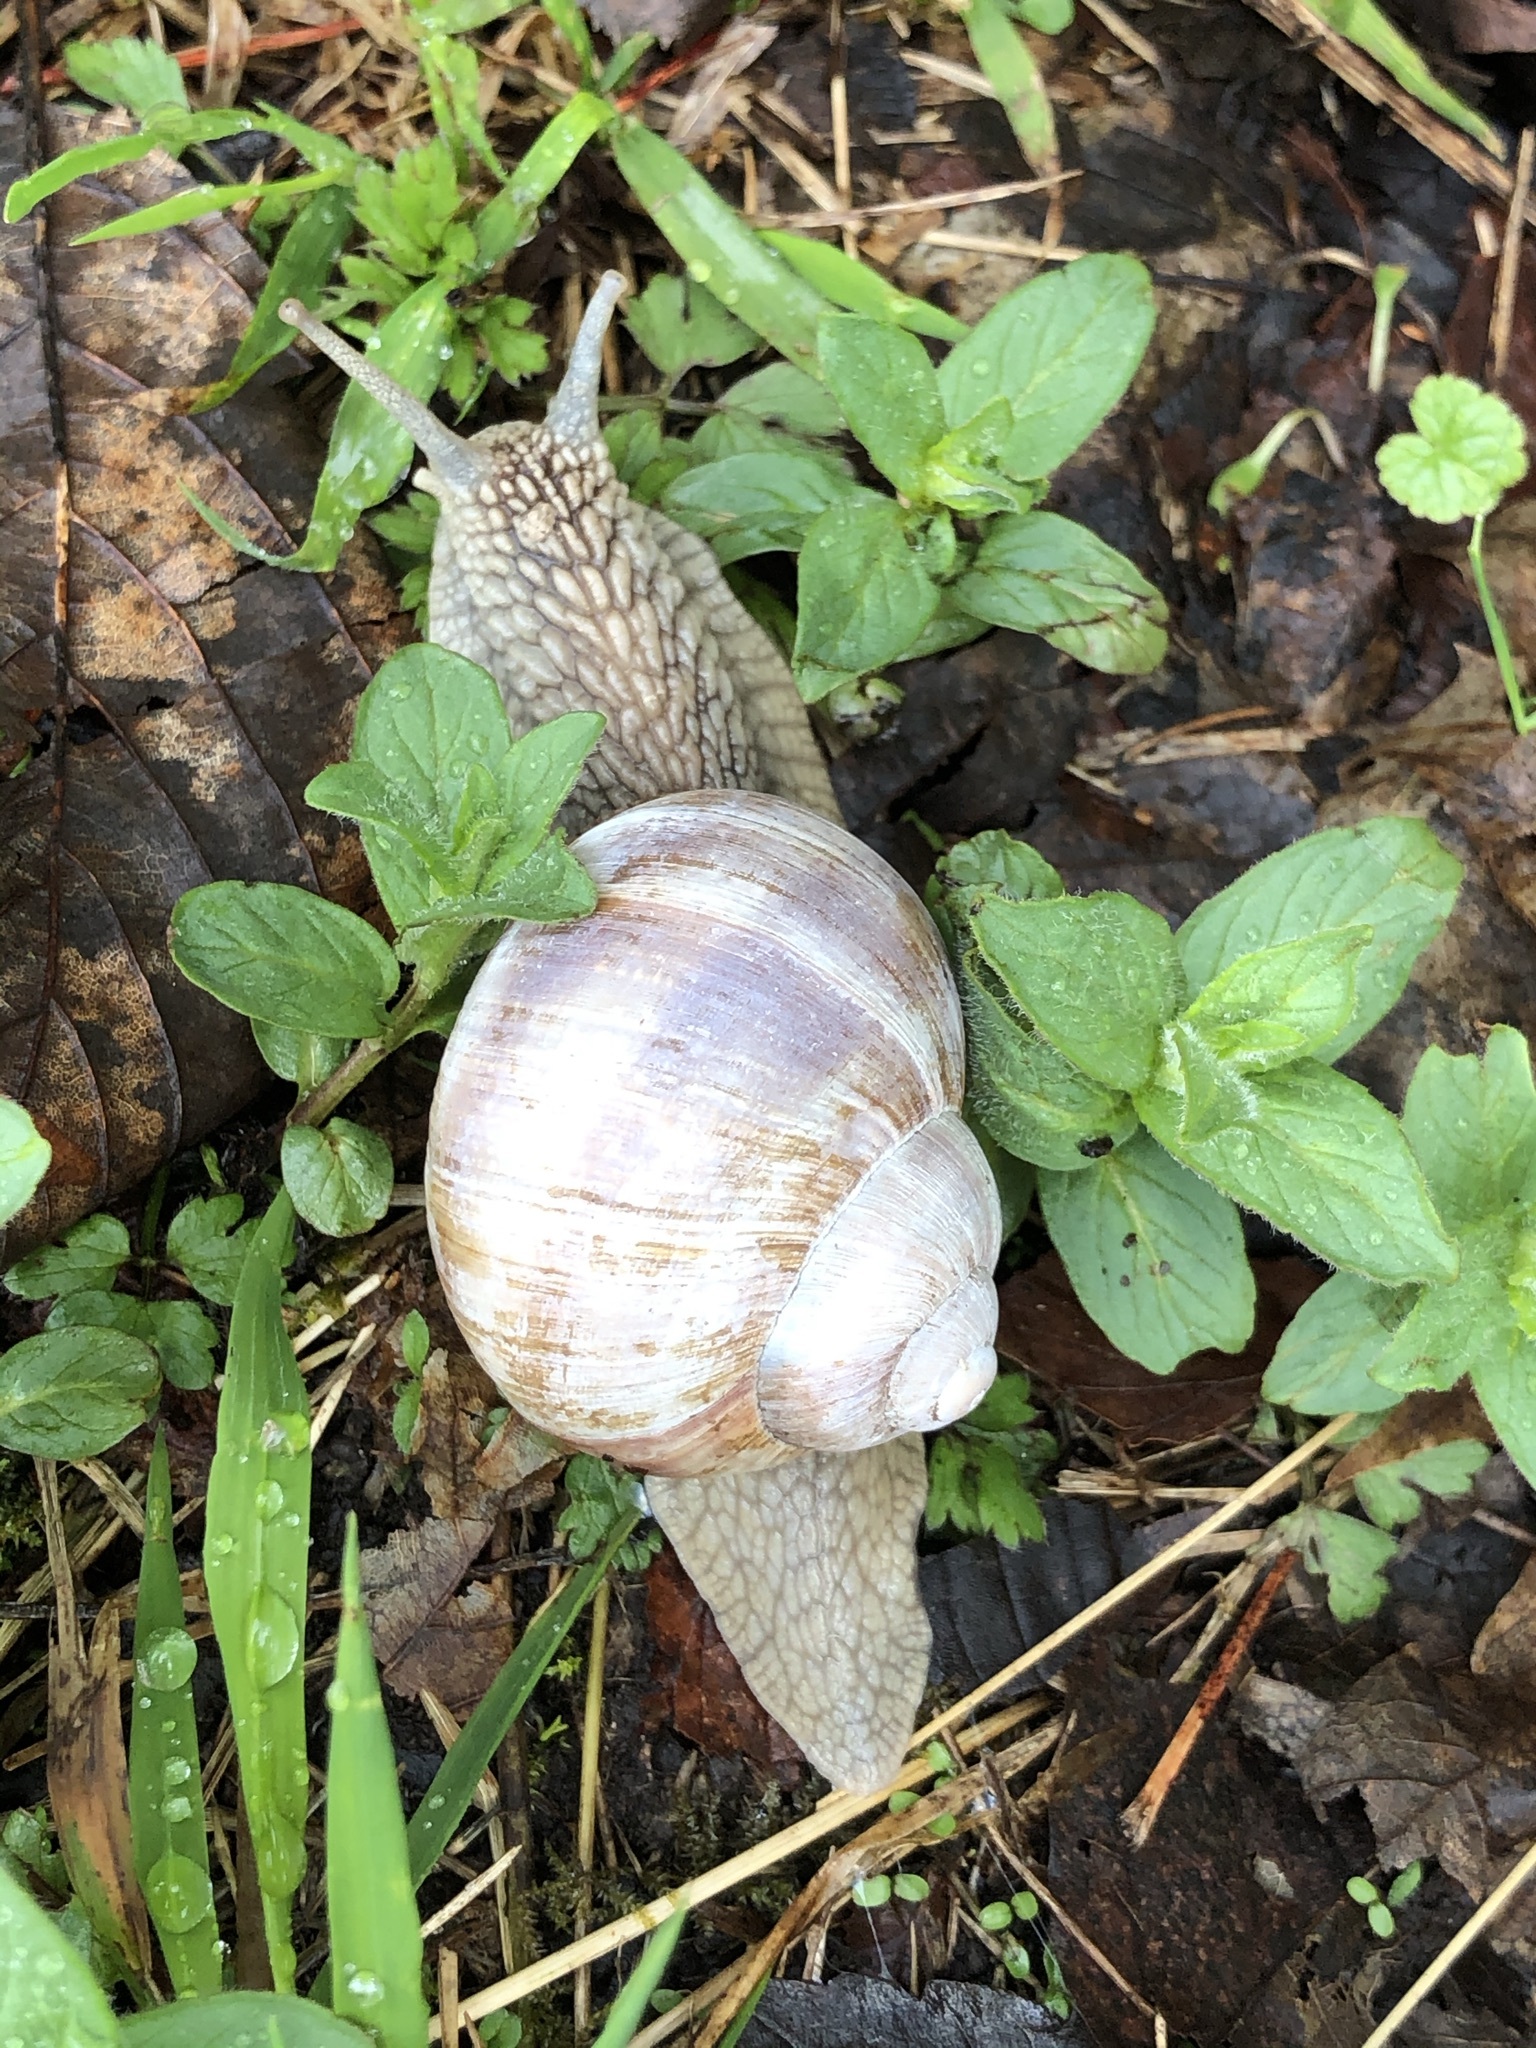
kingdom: Animalia
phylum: Mollusca
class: Gastropoda
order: Stylommatophora
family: Helicidae
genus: Helix
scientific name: Helix pomatia
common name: Roman snail
